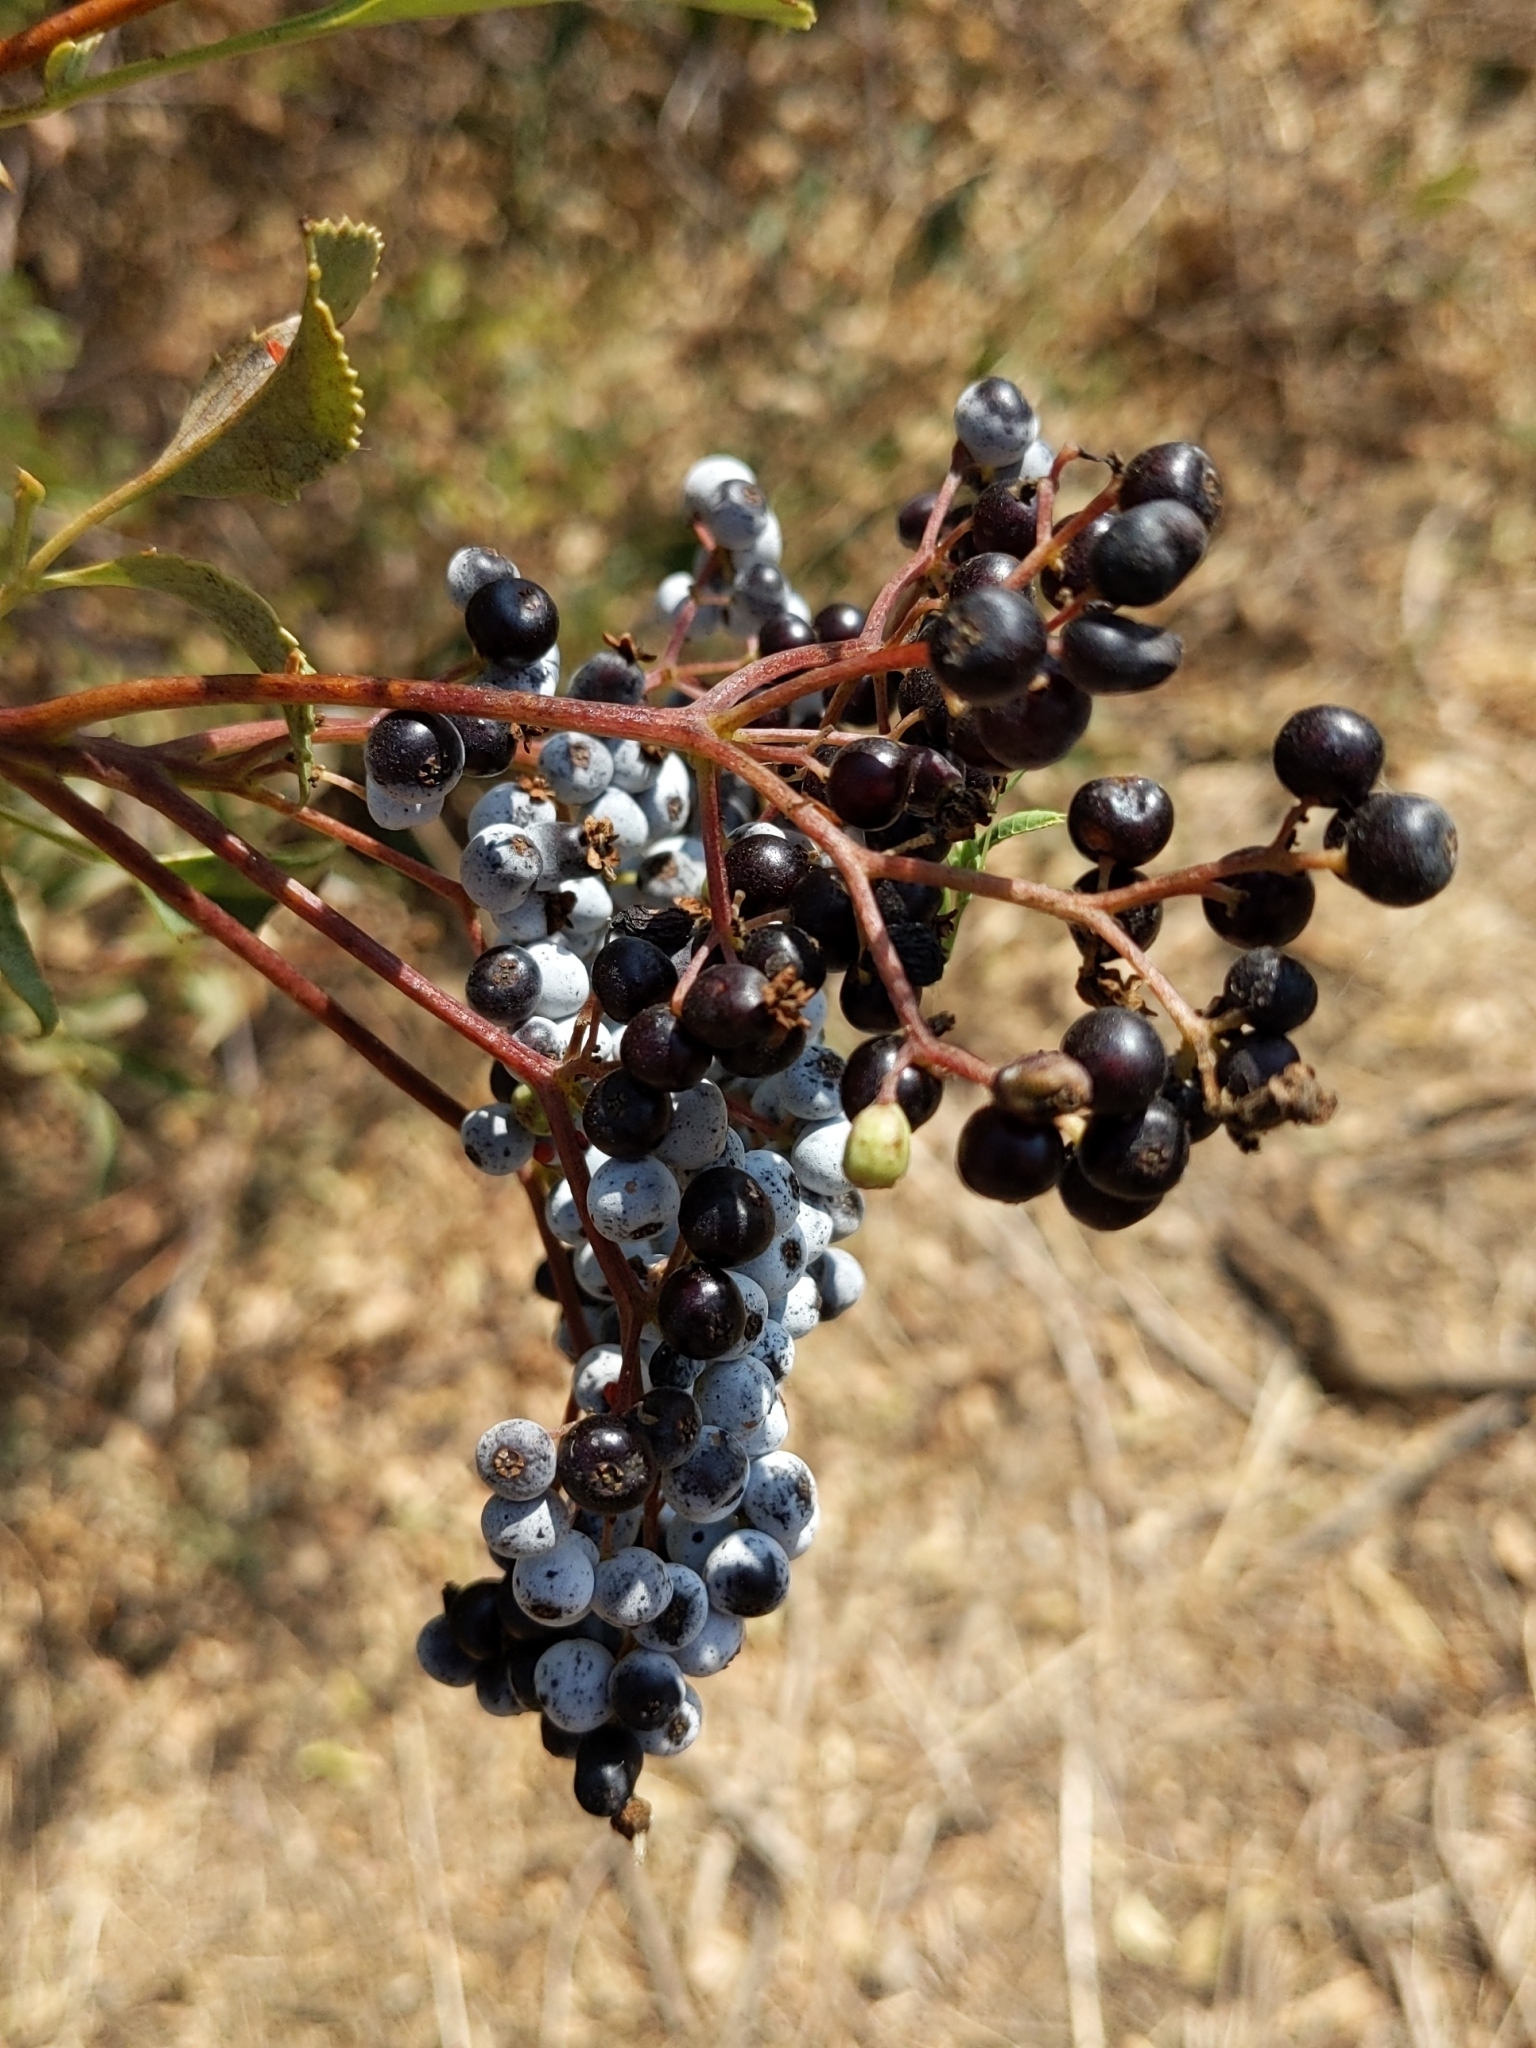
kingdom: Plantae
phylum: Tracheophyta
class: Magnoliopsida
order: Dipsacales
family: Viburnaceae
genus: Sambucus
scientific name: Sambucus cerulea
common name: Blue elder
